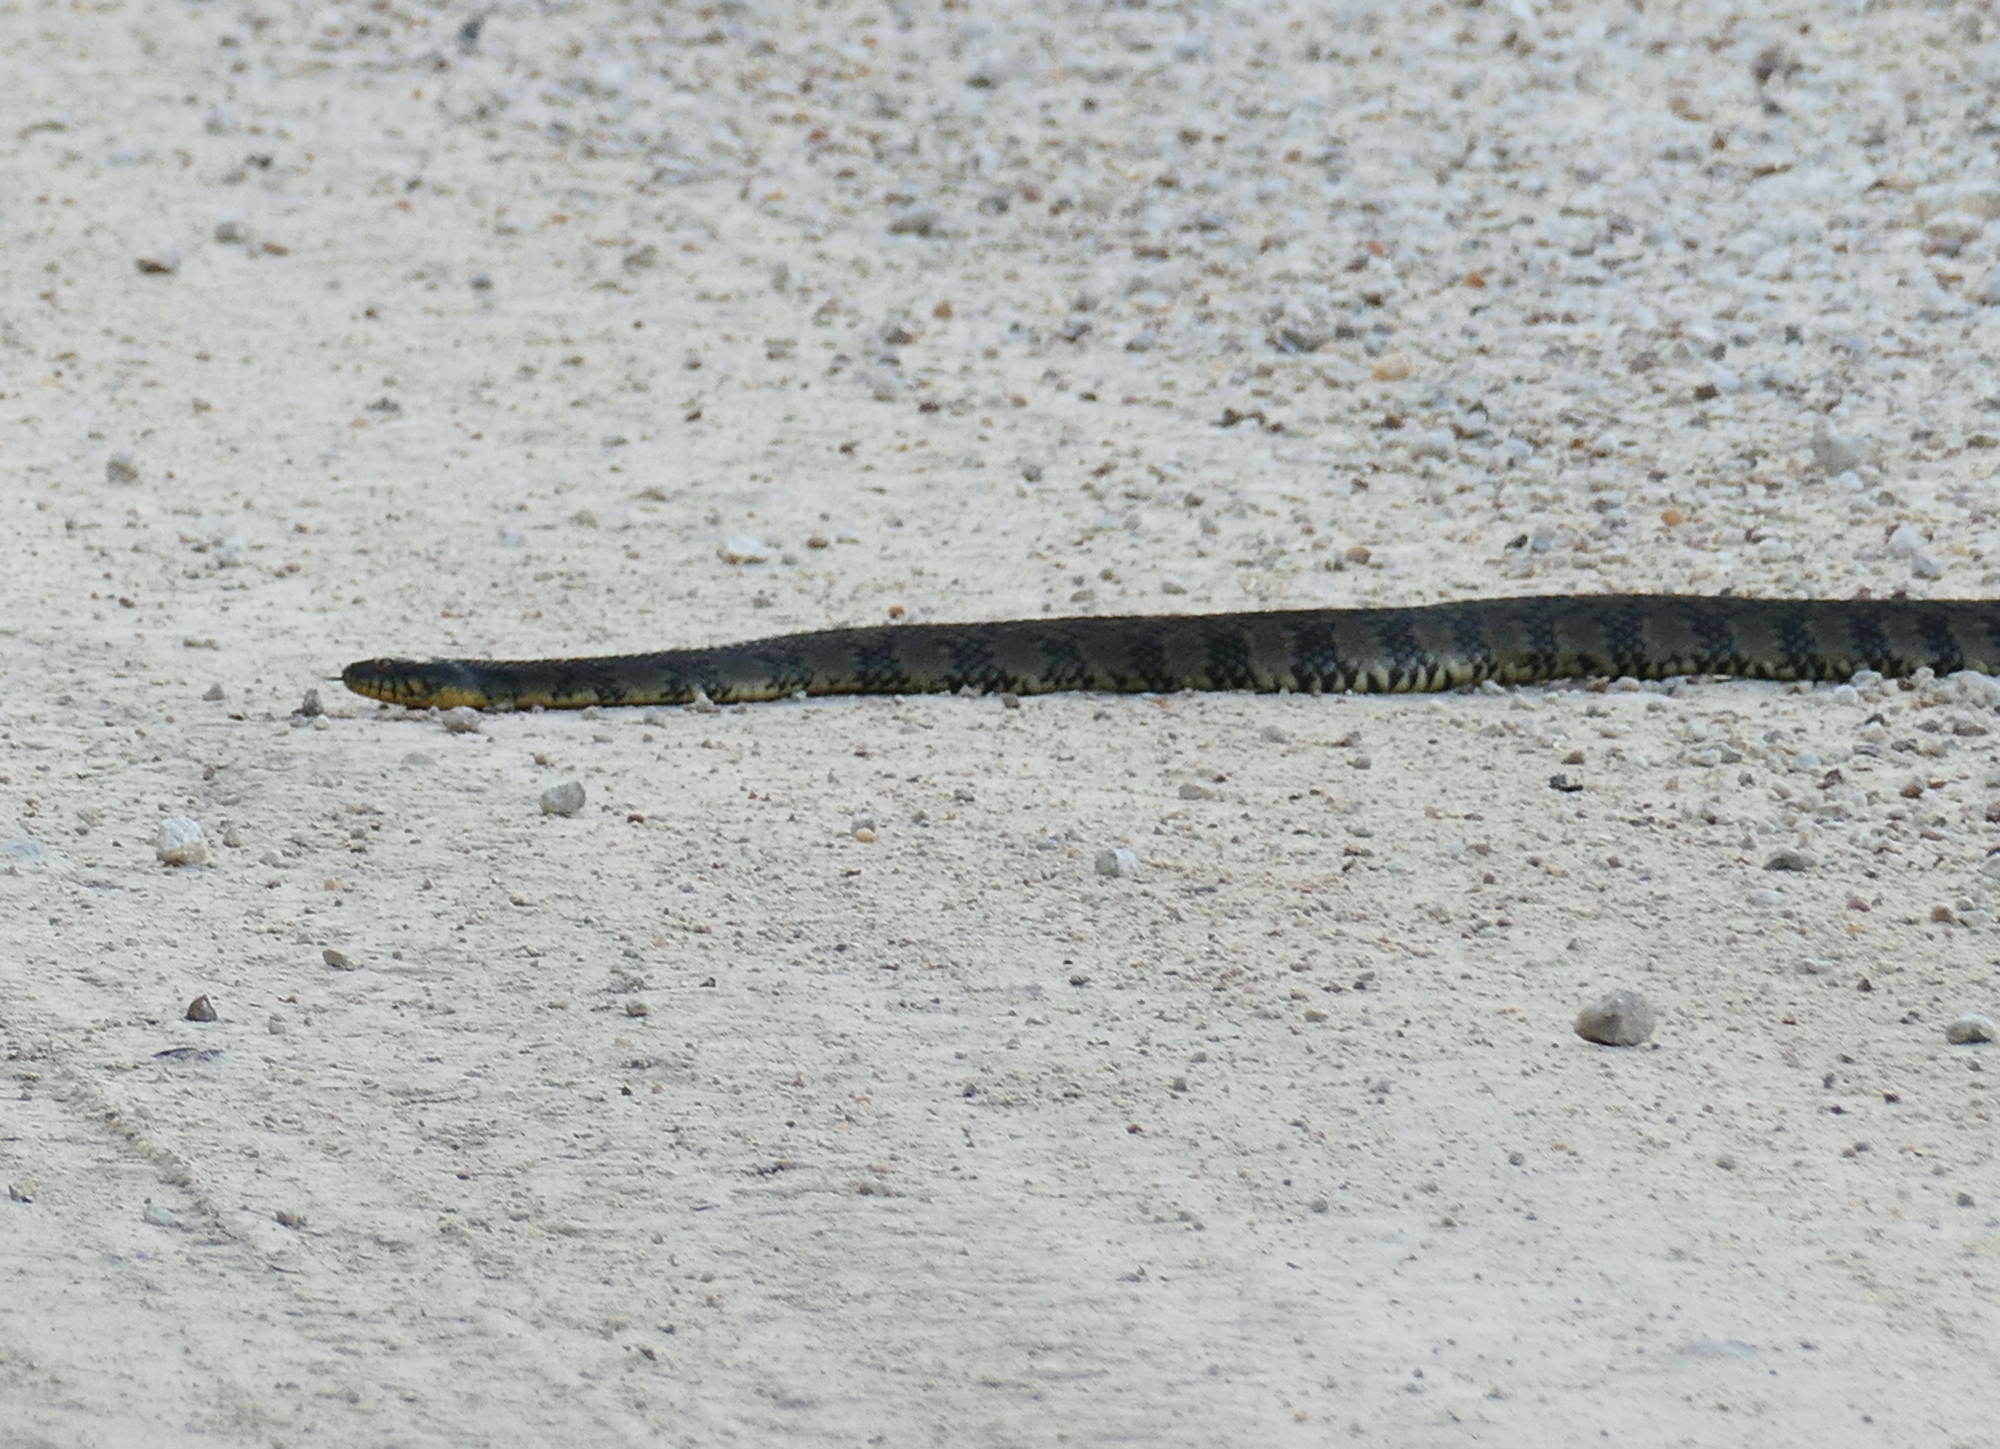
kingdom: Animalia
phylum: Chordata
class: Squamata
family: Colubridae
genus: Nerodia
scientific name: Nerodia rhombifer
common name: Diamondback water snake
